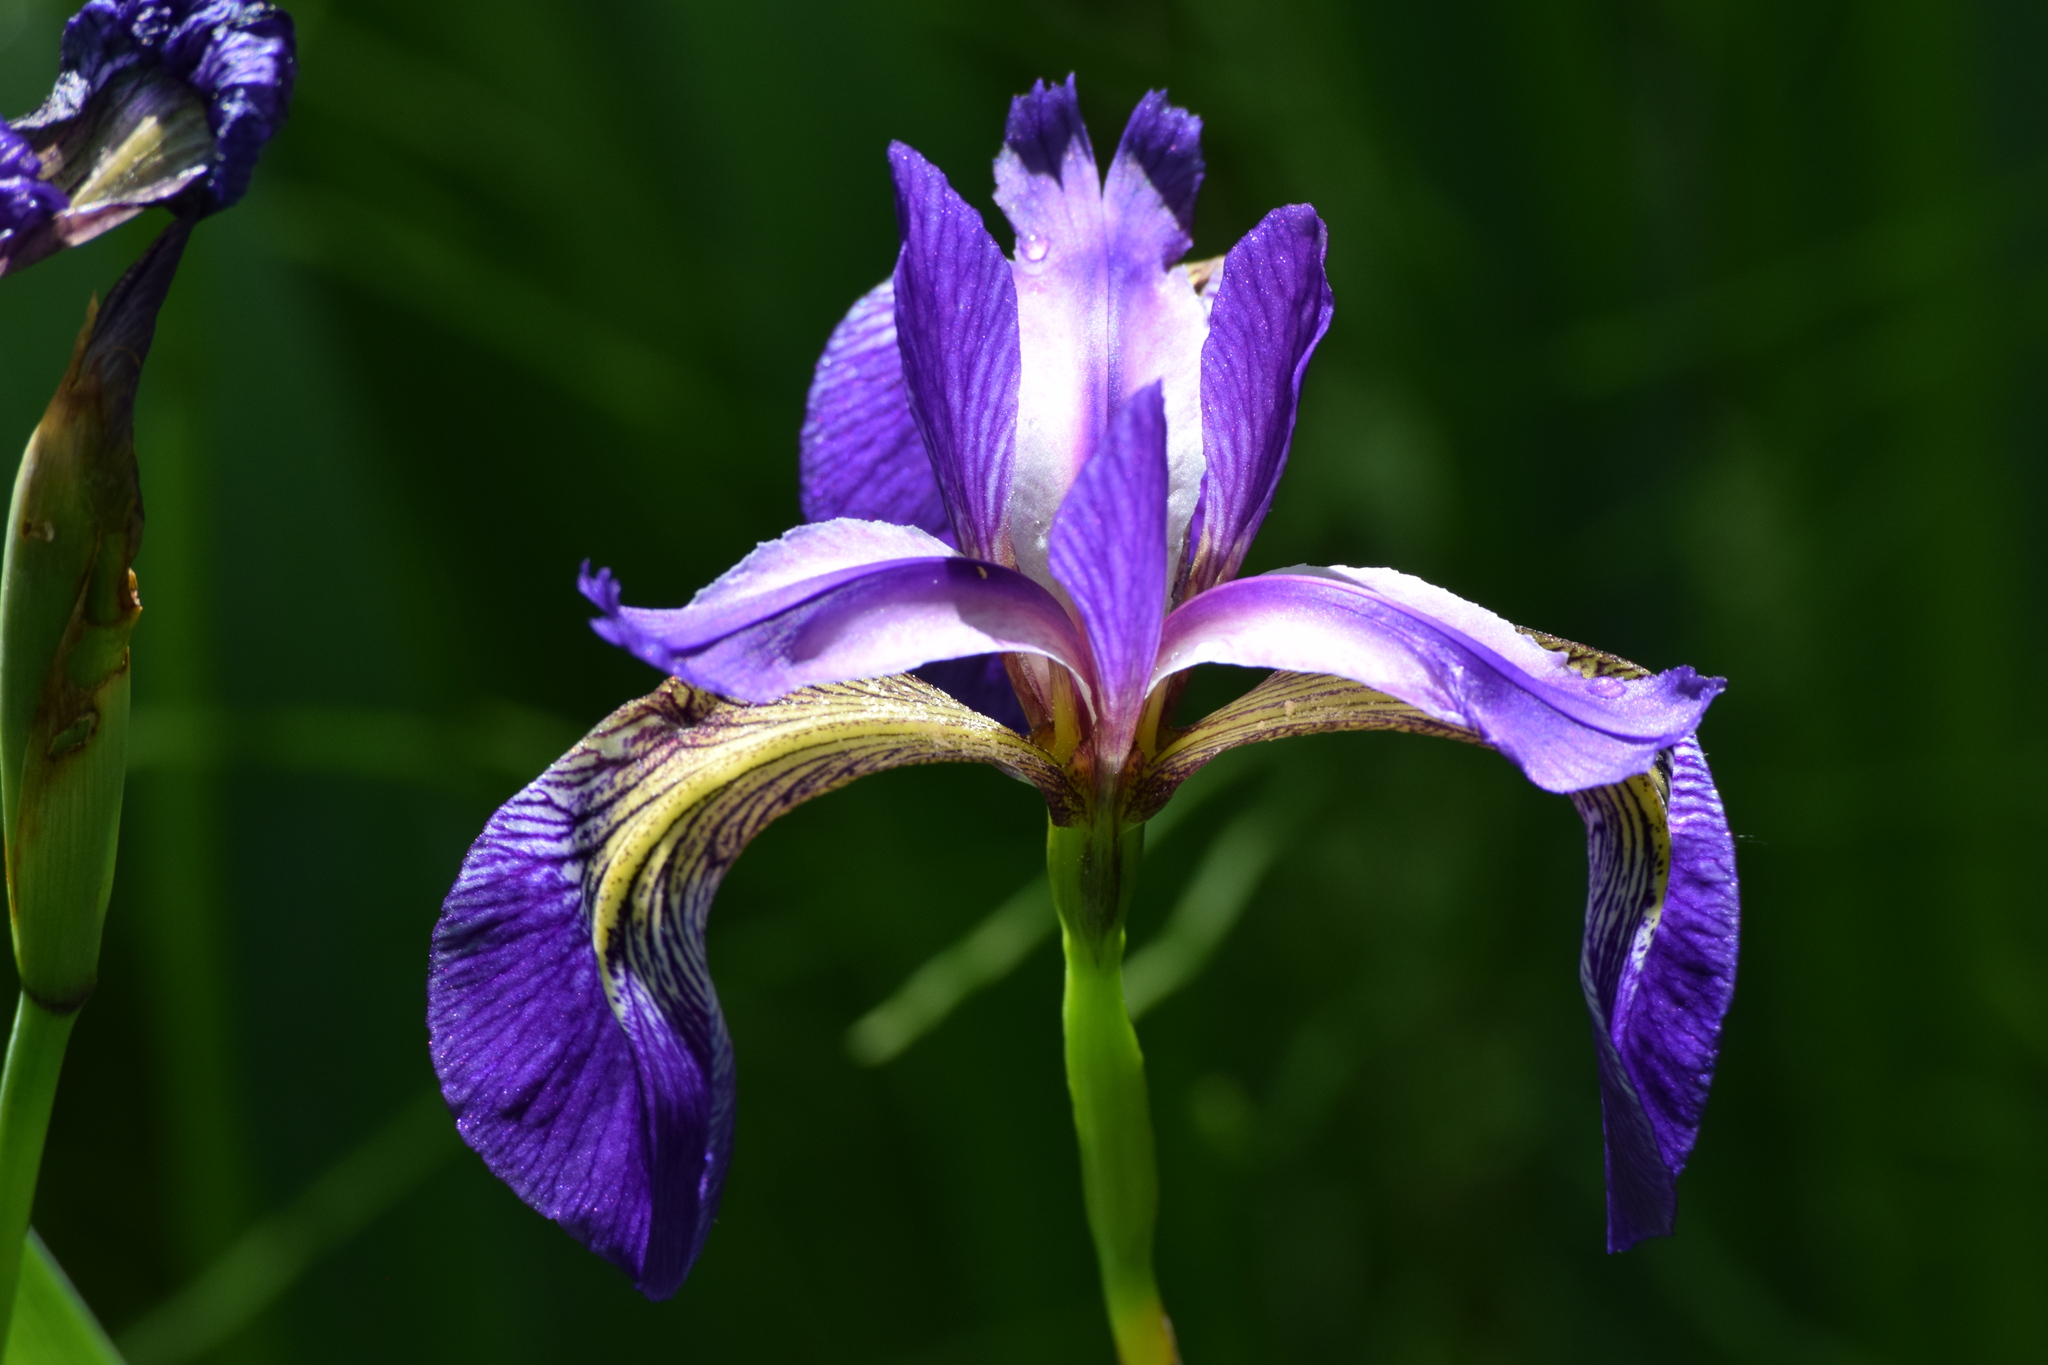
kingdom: Plantae
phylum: Tracheophyta
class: Liliopsida
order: Asparagales
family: Iridaceae
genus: Iris
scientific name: Iris versicolor
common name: Purple iris
